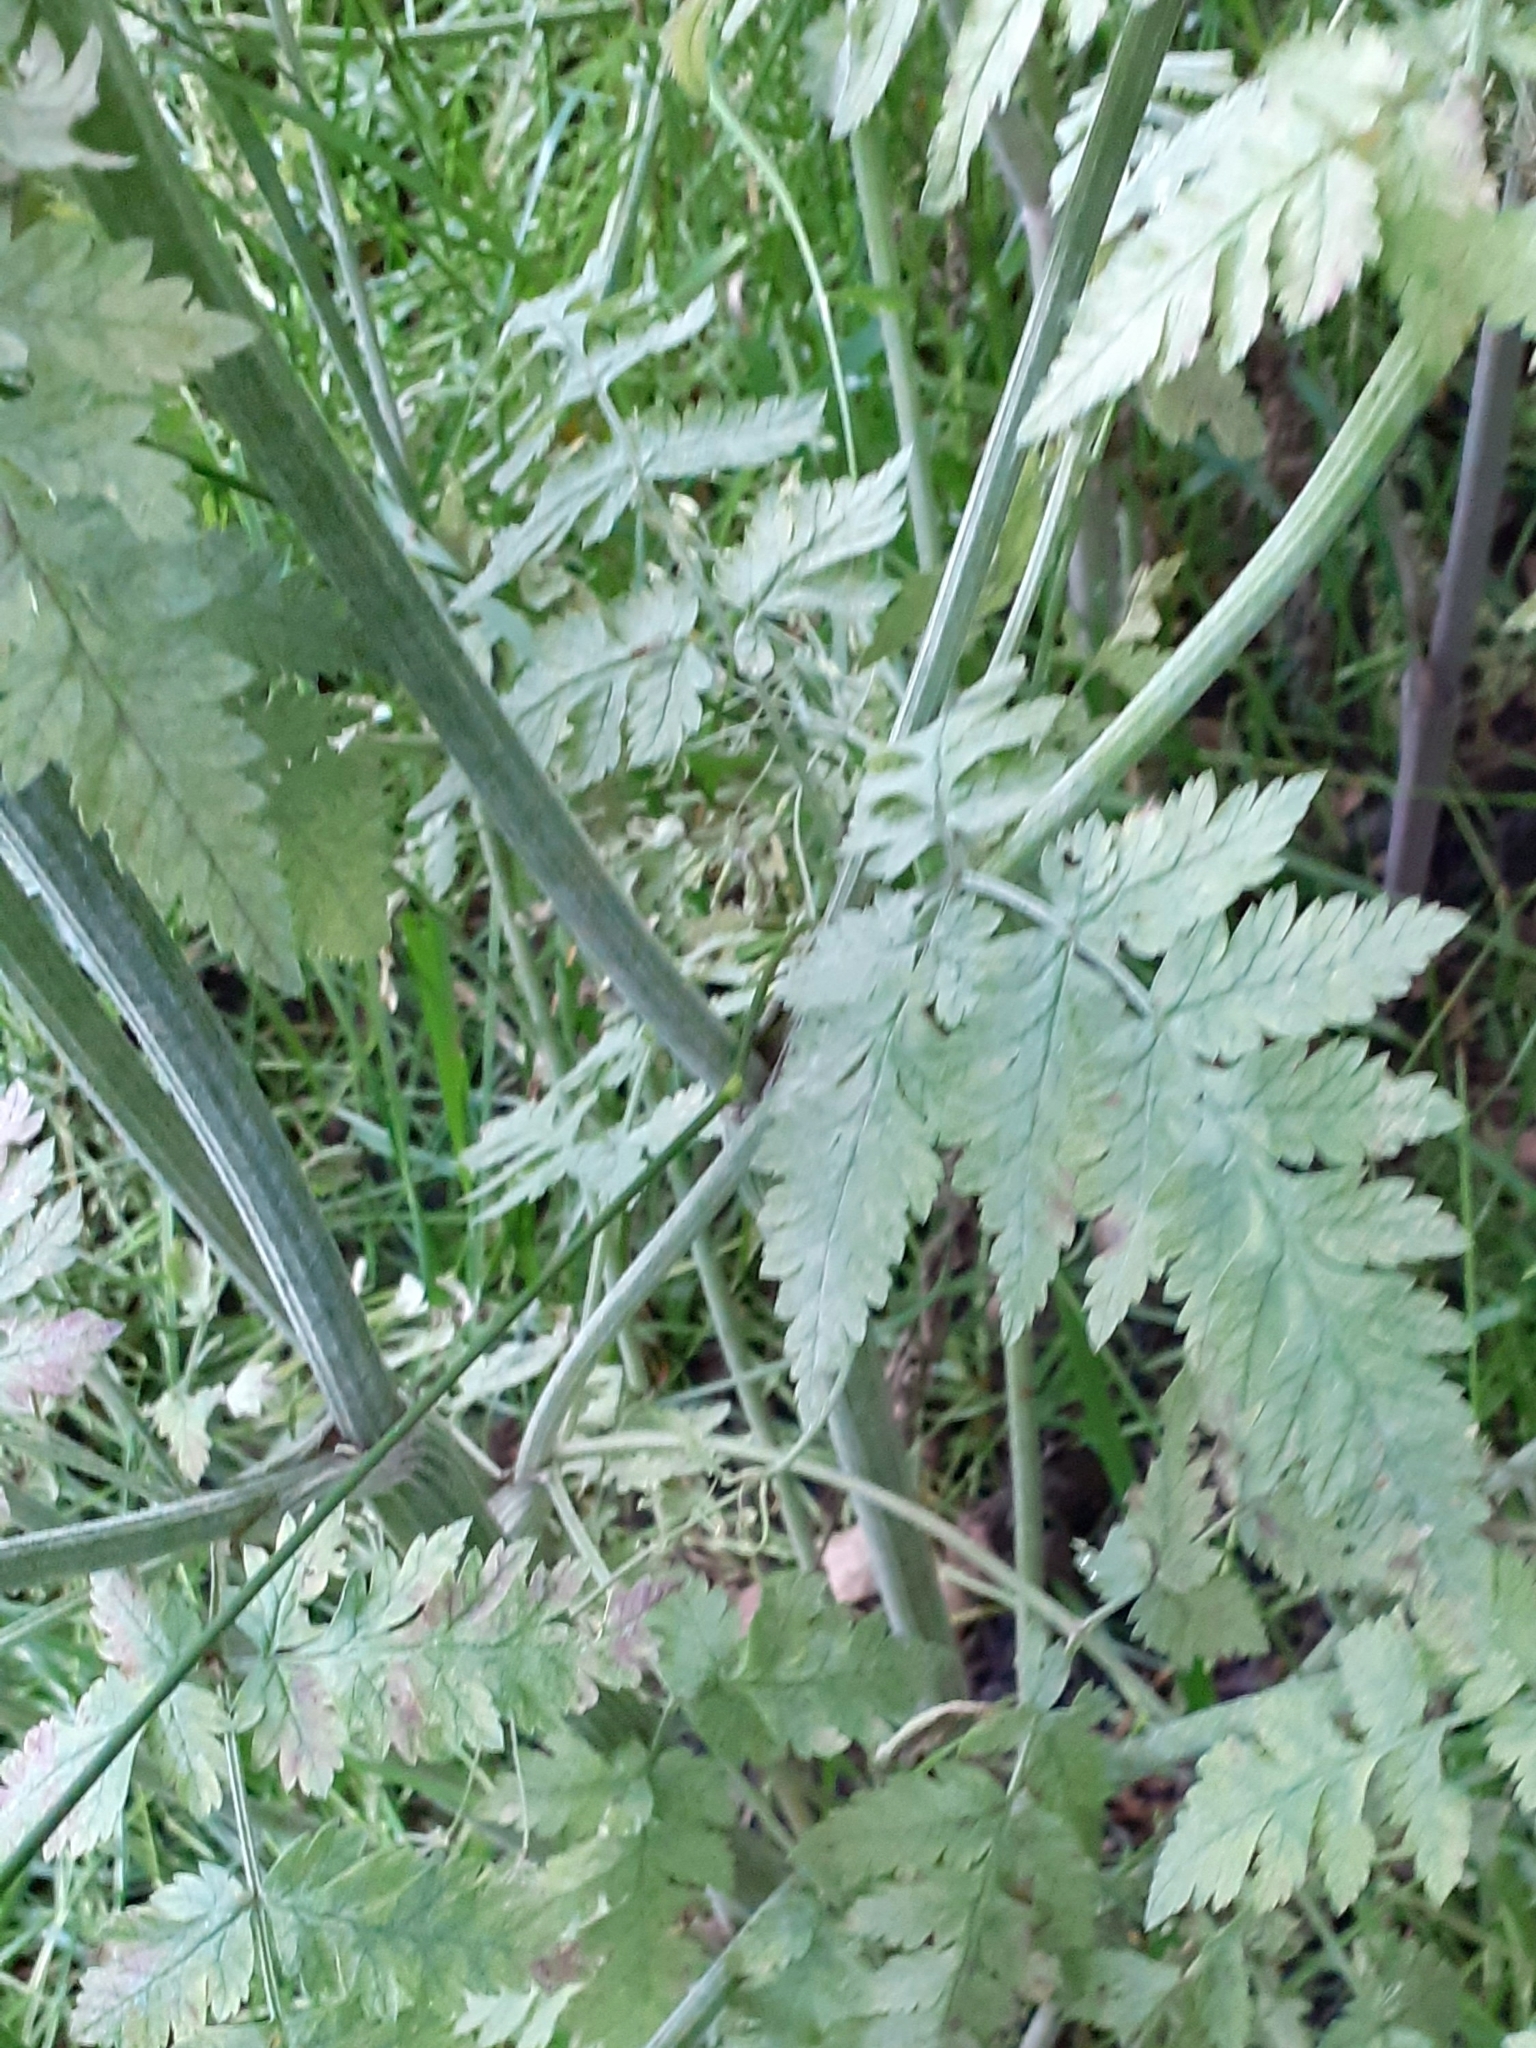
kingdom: Plantae
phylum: Tracheophyta
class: Magnoliopsida
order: Apiales
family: Apiaceae
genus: Anthriscus
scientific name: Anthriscus sylvestris
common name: Cow parsley
